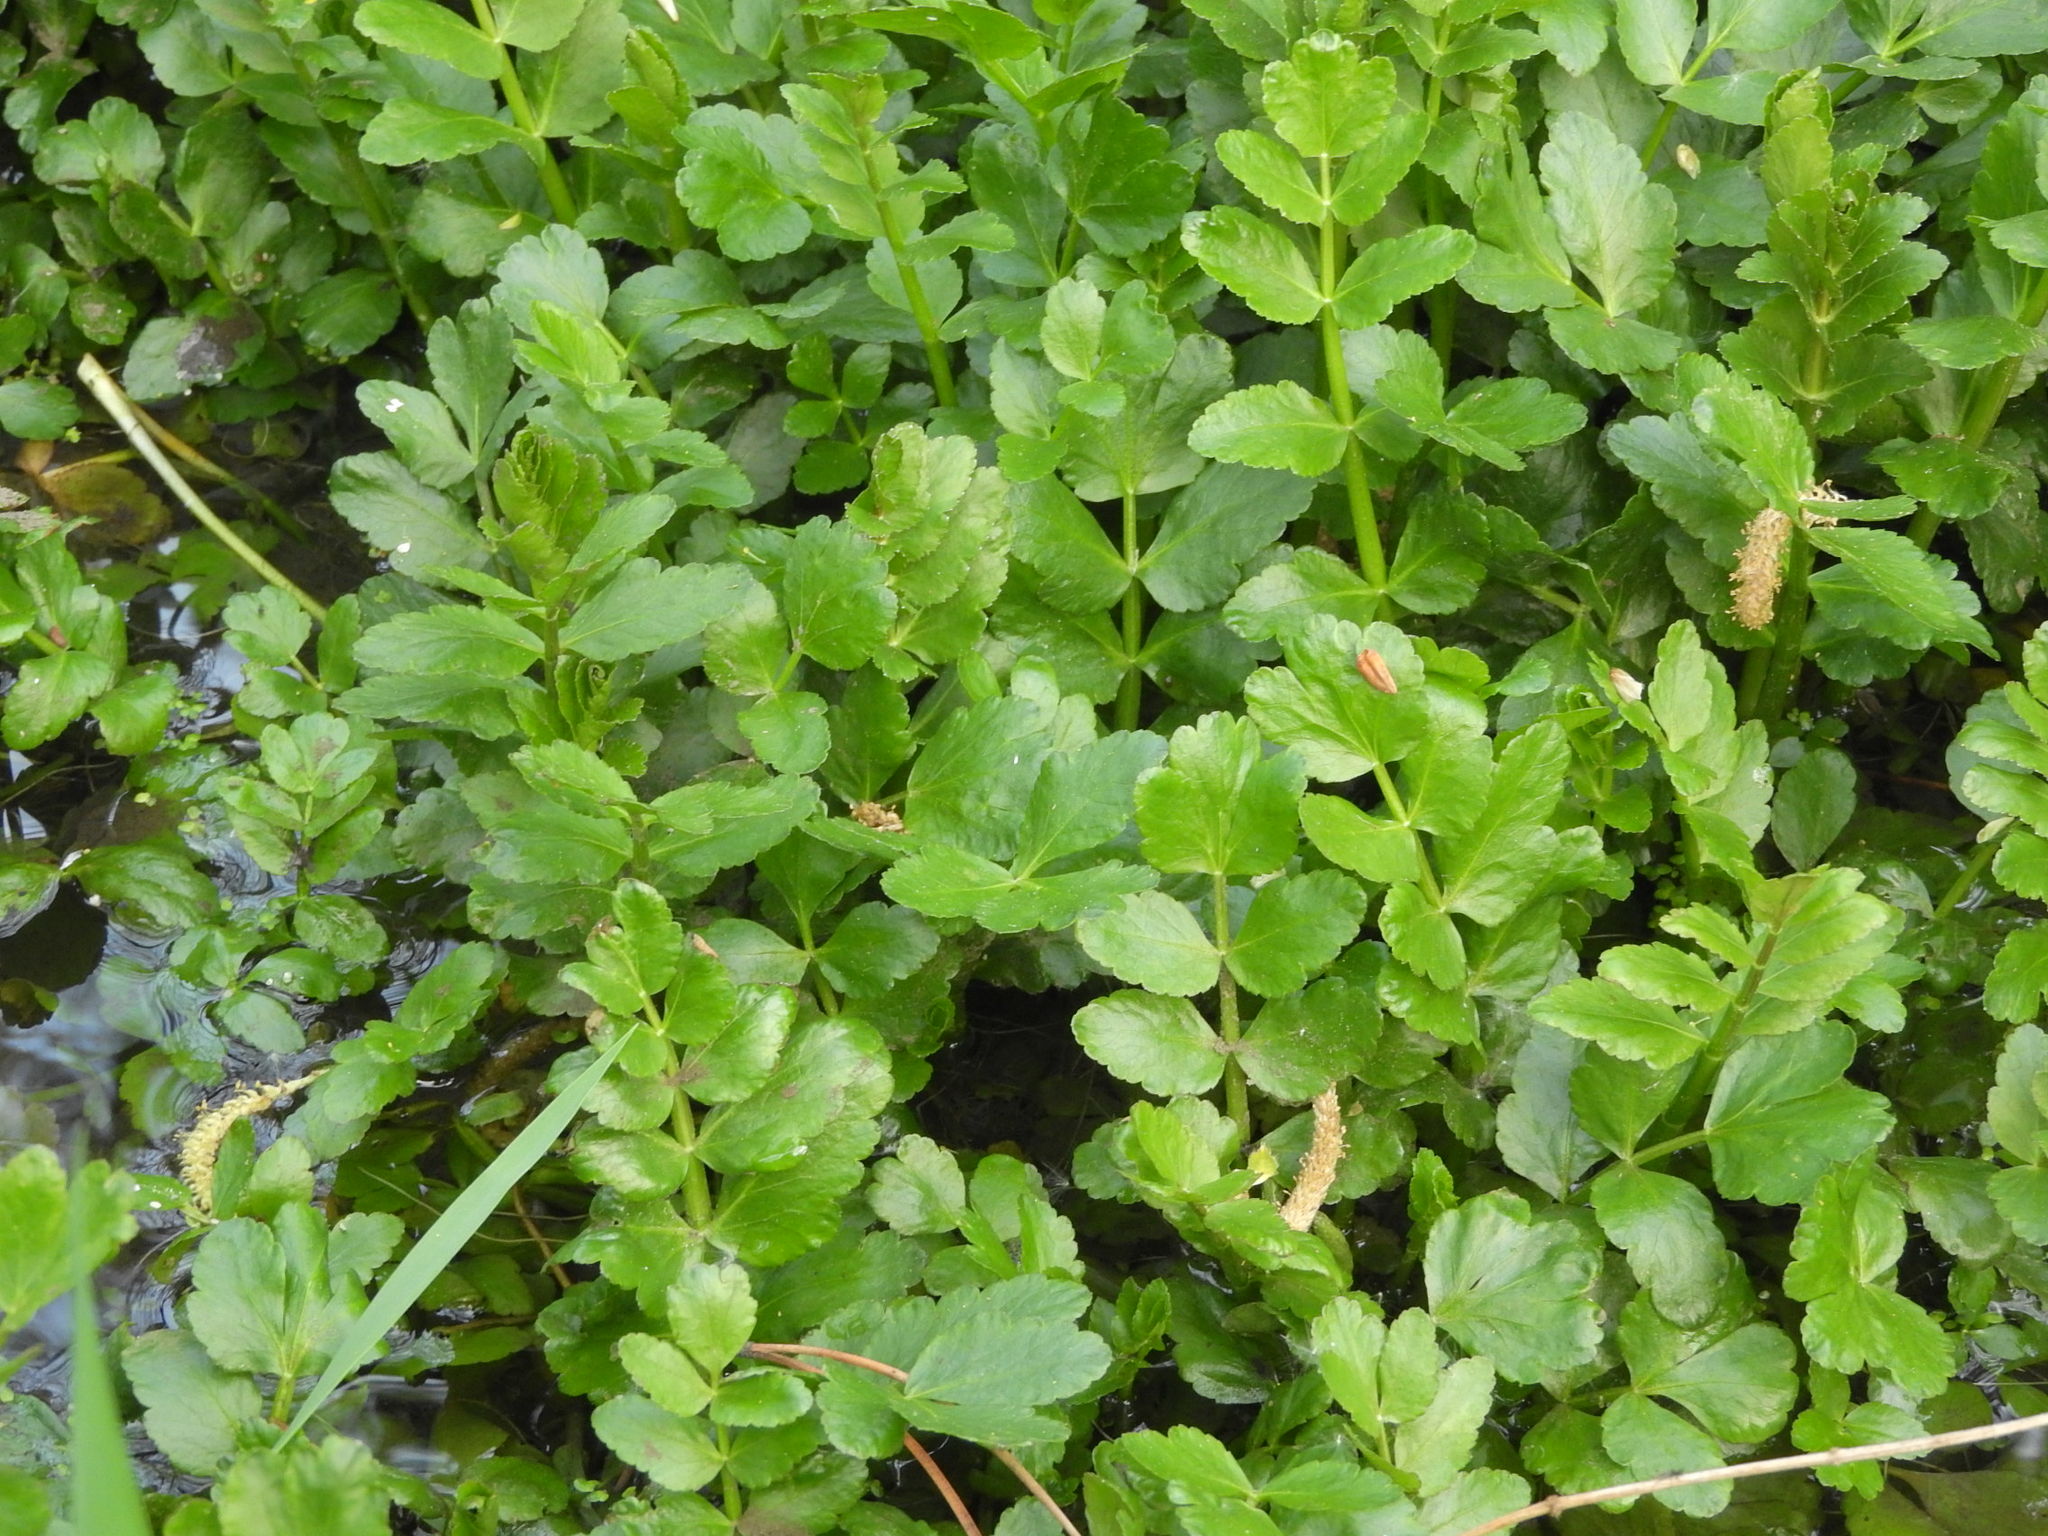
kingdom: Plantae
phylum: Tracheophyta
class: Magnoliopsida
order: Apiales
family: Apiaceae
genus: Berula
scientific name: Berula erecta
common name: Lesser water-parsnip
